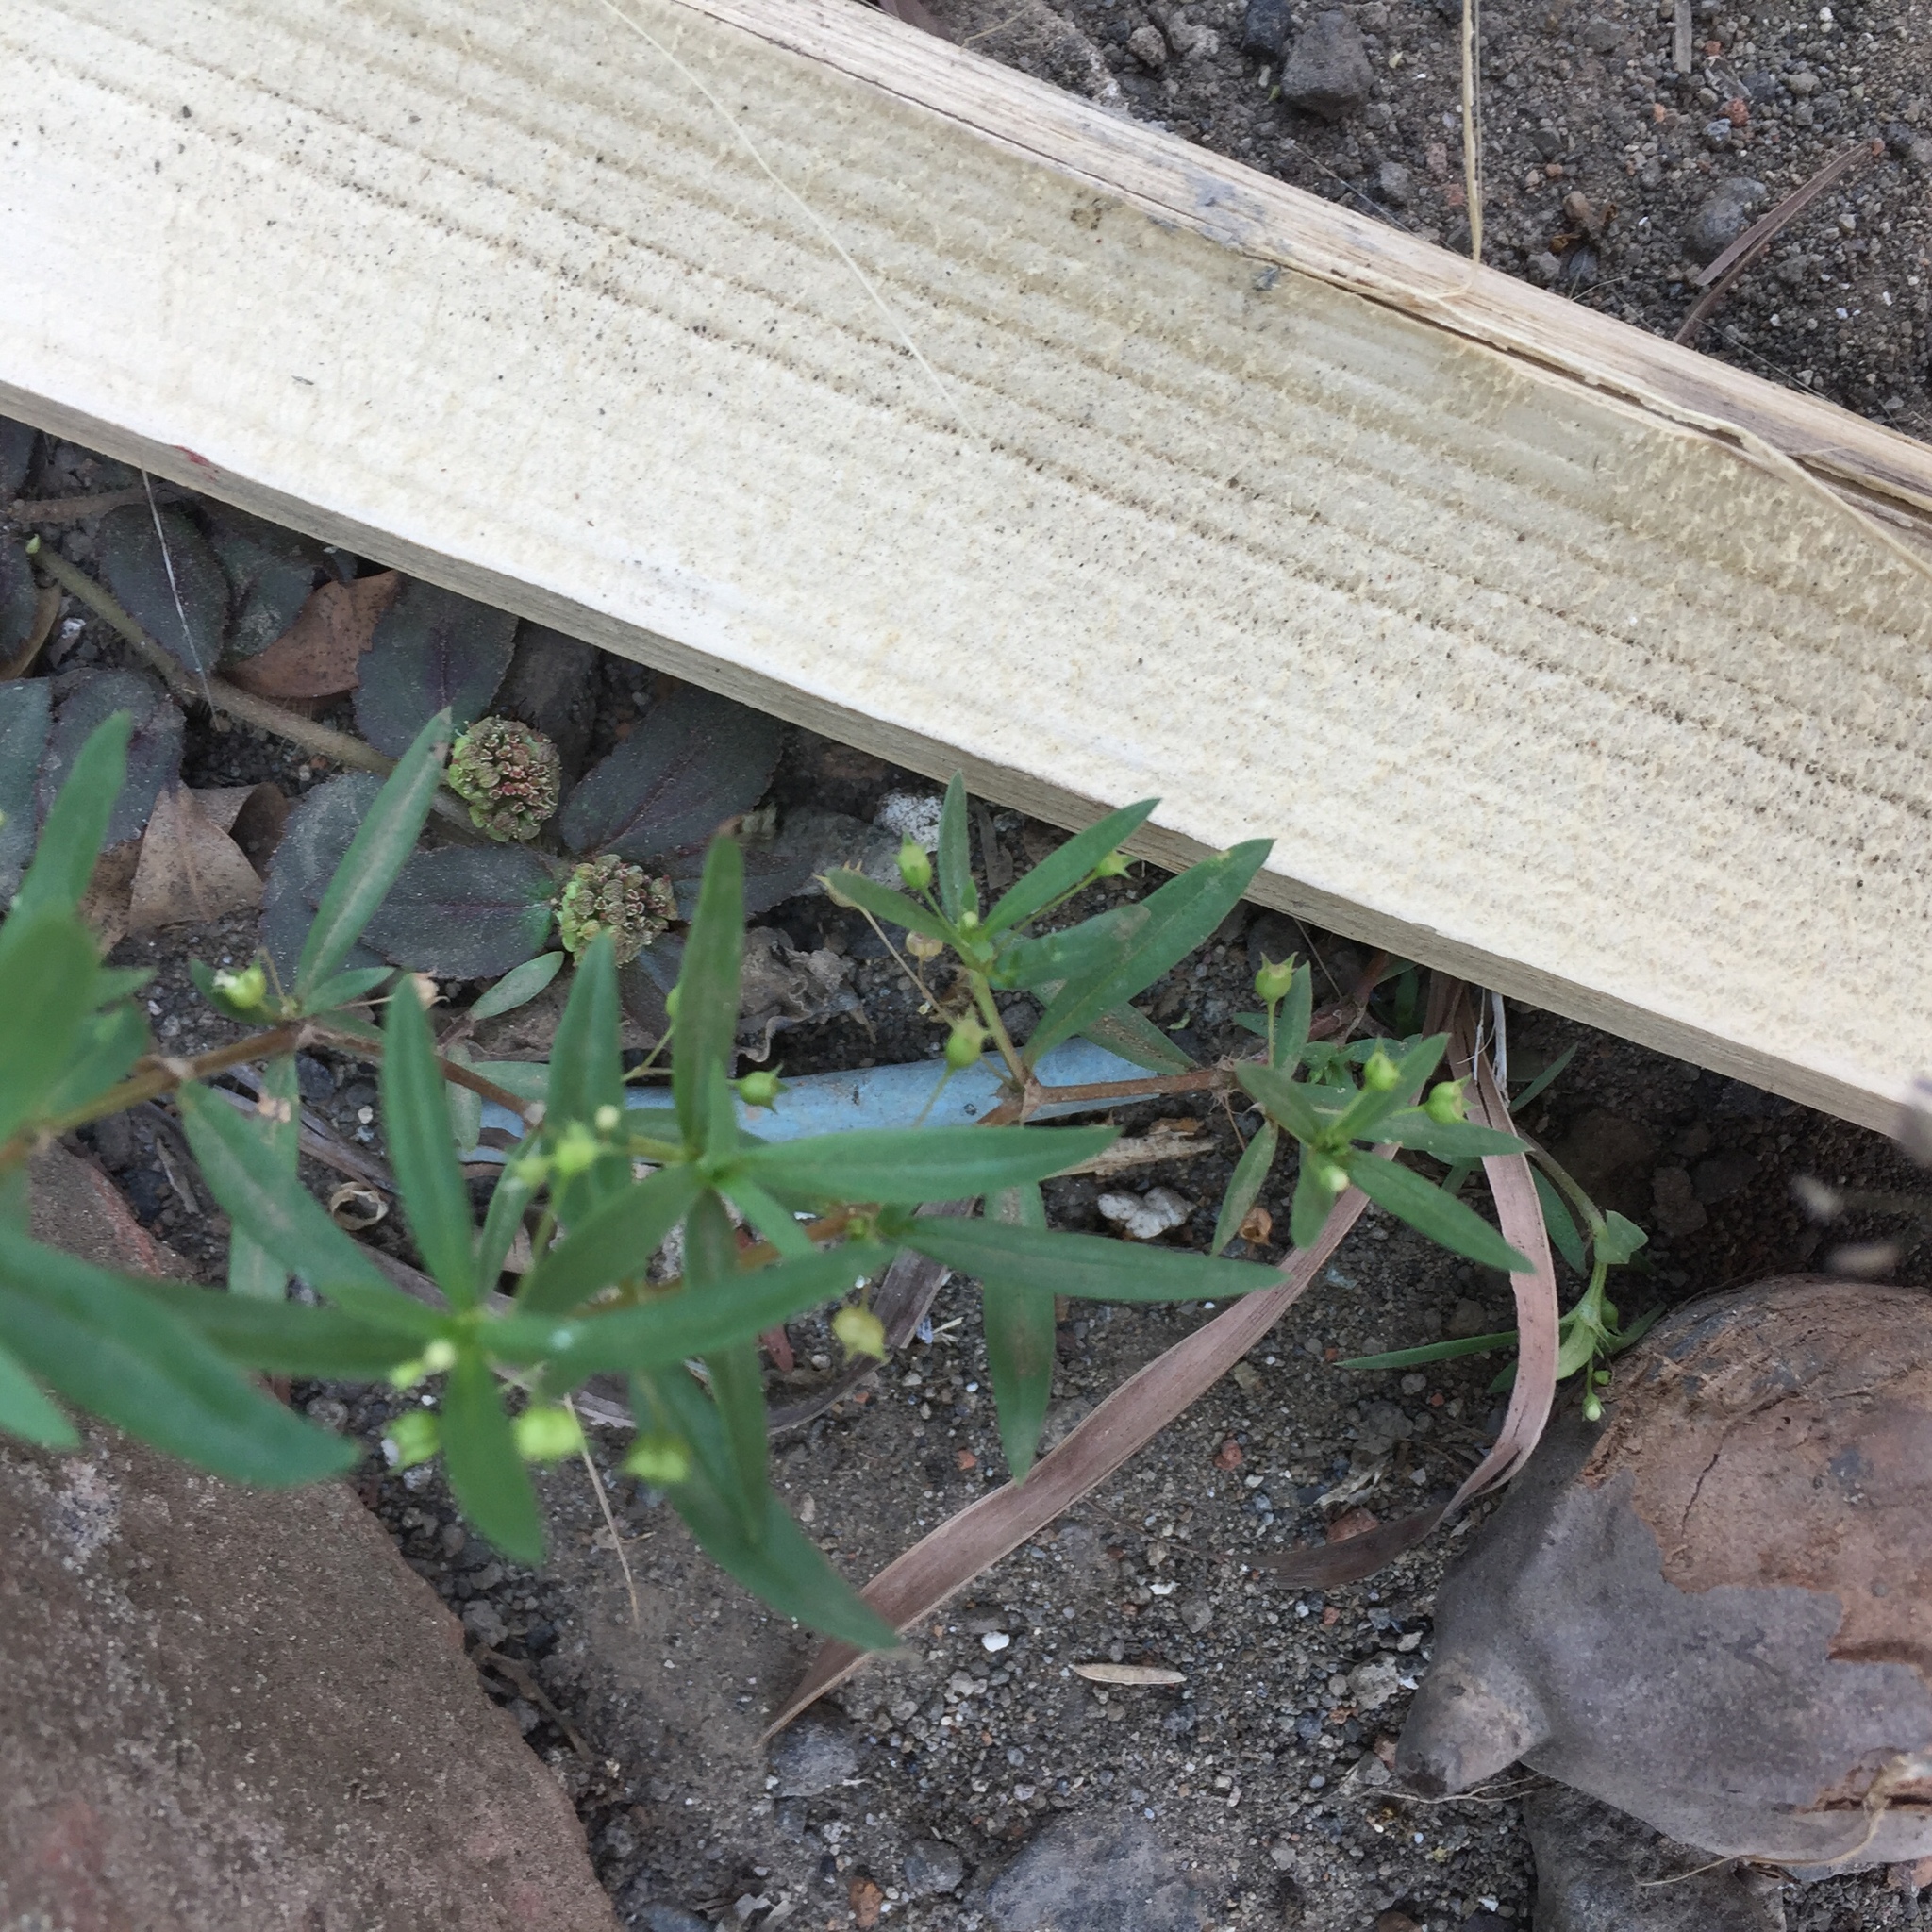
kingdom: Plantae
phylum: Tracheophyta
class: Magnoliopsida
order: Gentianales
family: Rubiaceae
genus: Oldenlandia
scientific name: Oldenlandia corymbosa
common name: Flat-top mille graines
